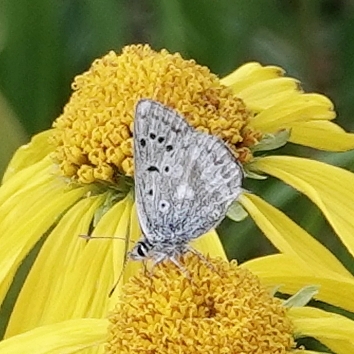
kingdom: Animalia
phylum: Arthropoda
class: Insecta
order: Lepidoptera
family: Lycaenidae
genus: Agriades
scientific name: Agriades glandon
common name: Glandon blue
